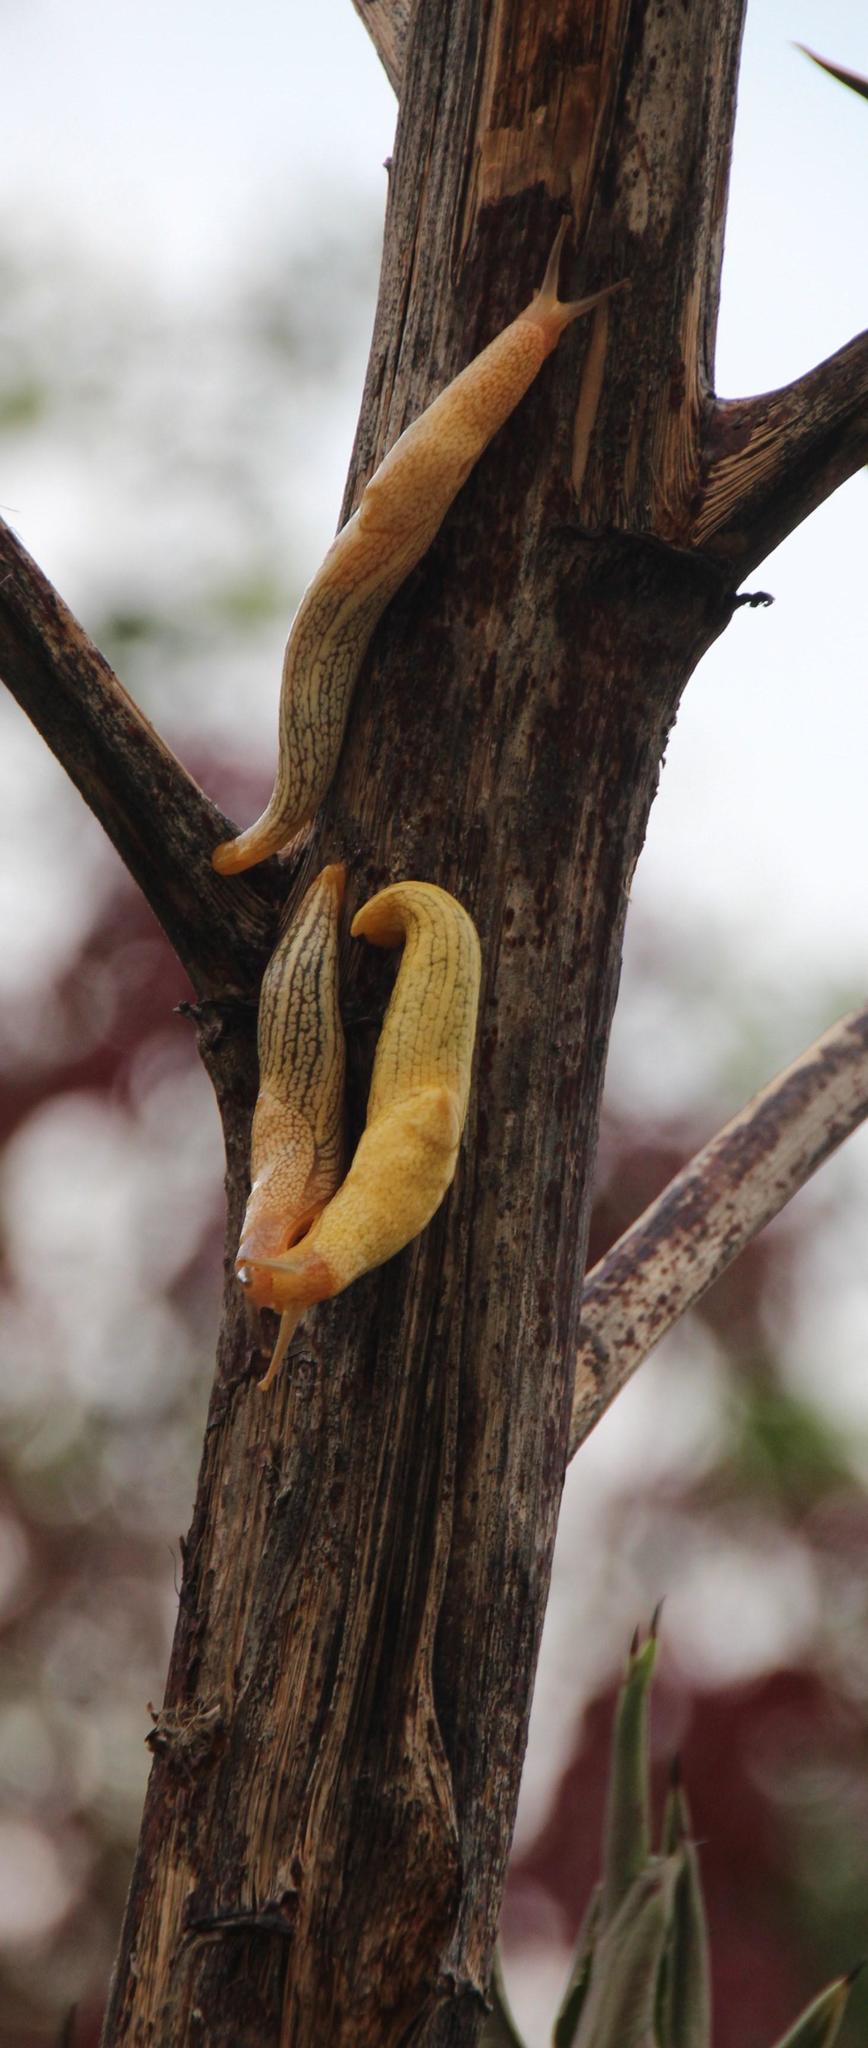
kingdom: Animalia
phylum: Mollusca
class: Gastropoda
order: Stylommatophora
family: Urocyclidae
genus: Elisolimax
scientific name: Elisolimax flavescens
